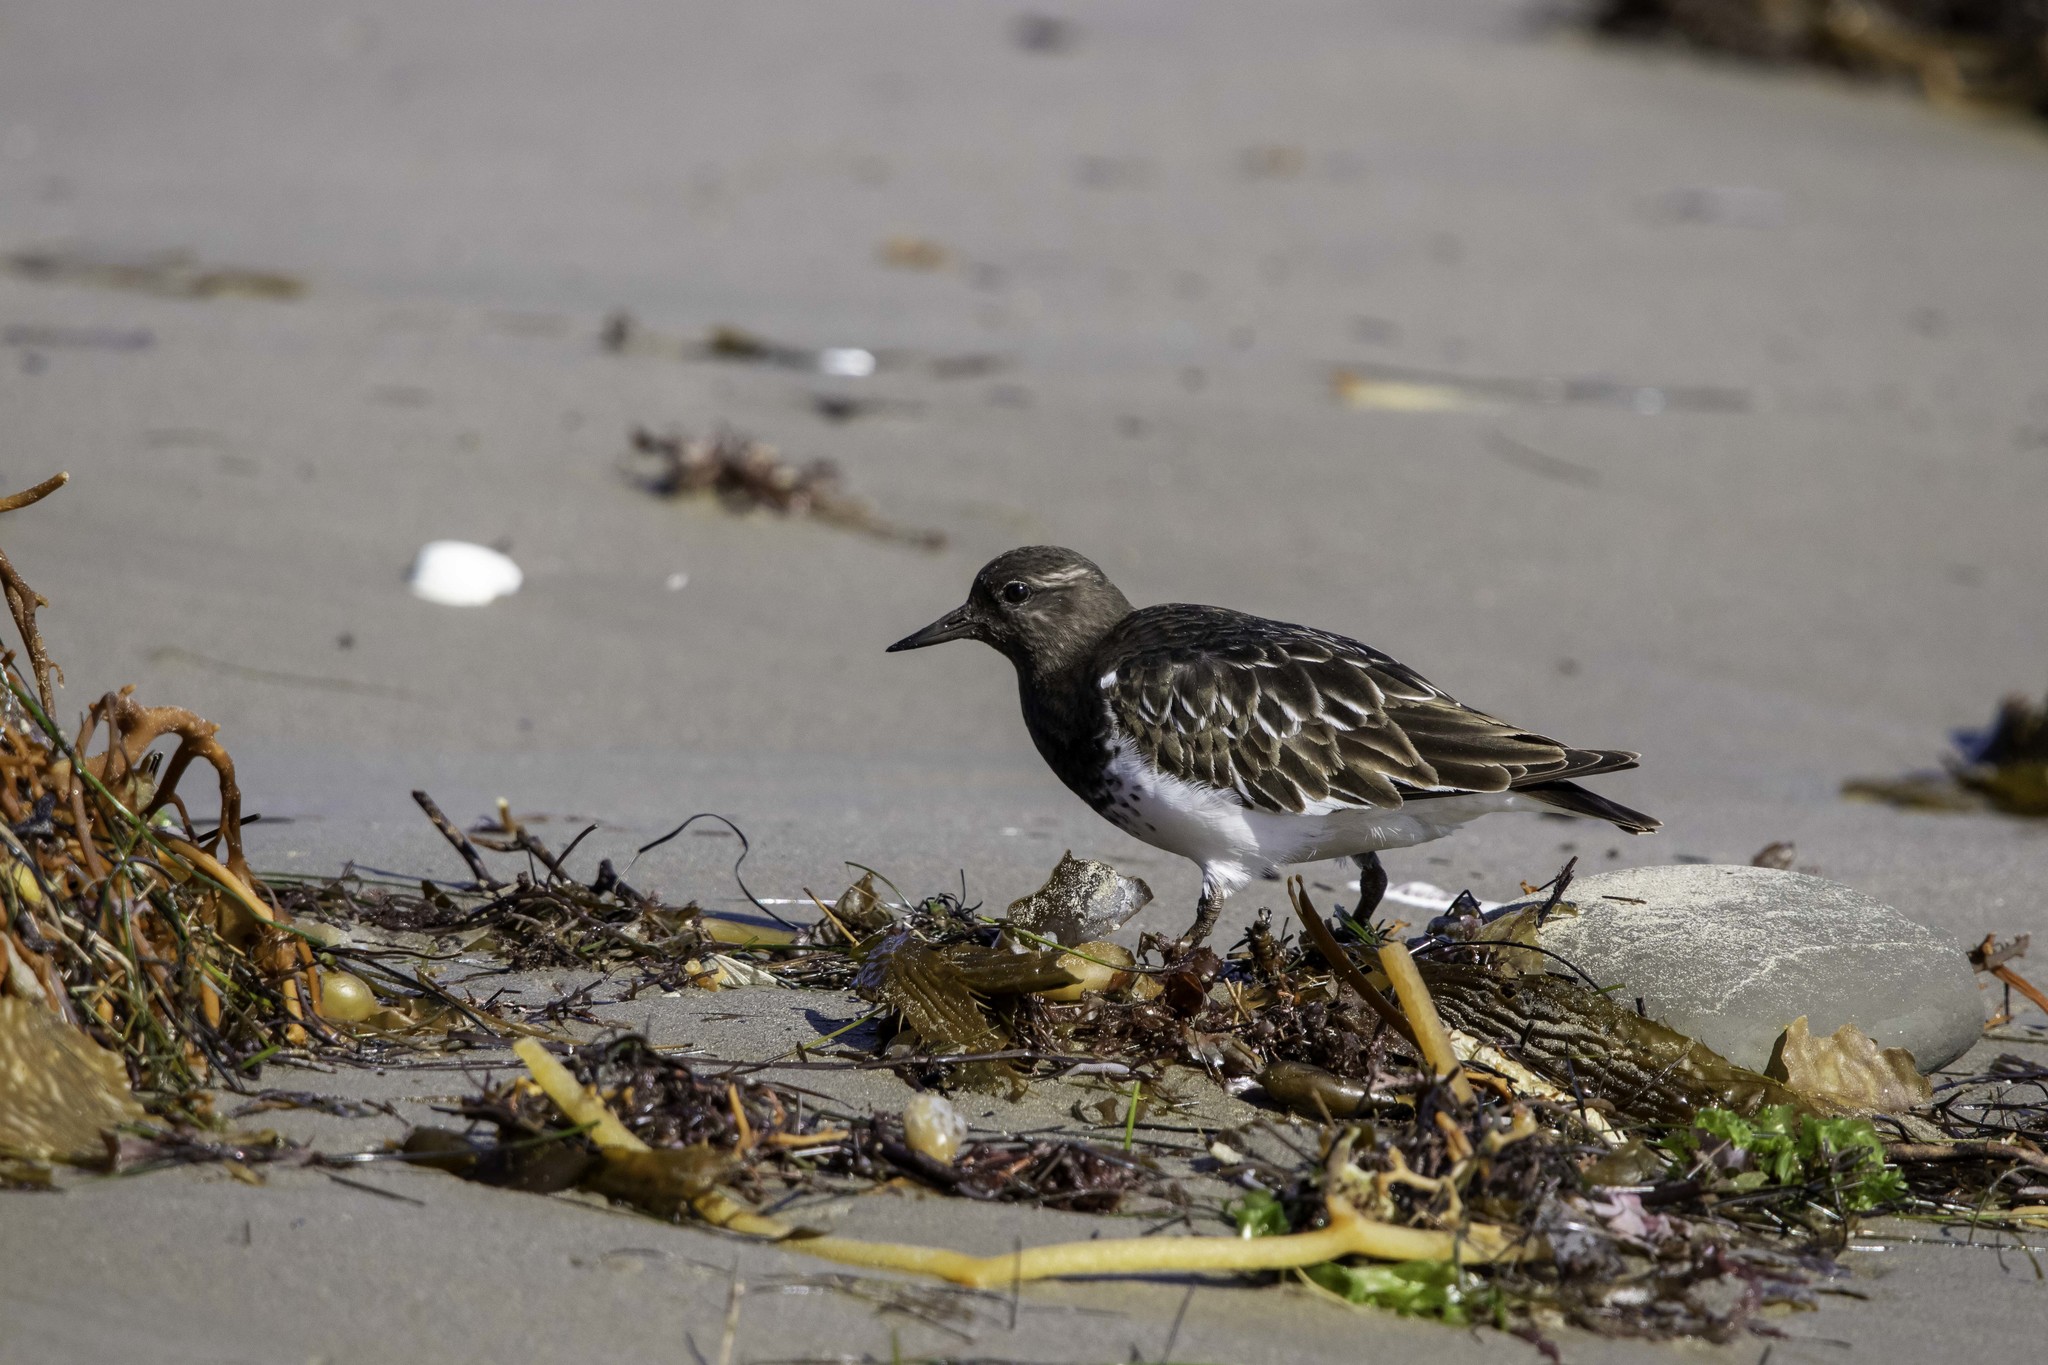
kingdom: Animalia
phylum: Chordata
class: Aves
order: Charadriiformes
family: Scolopacidae
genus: Arenaria
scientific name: Arenaria melanocephala
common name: Black turnstone
